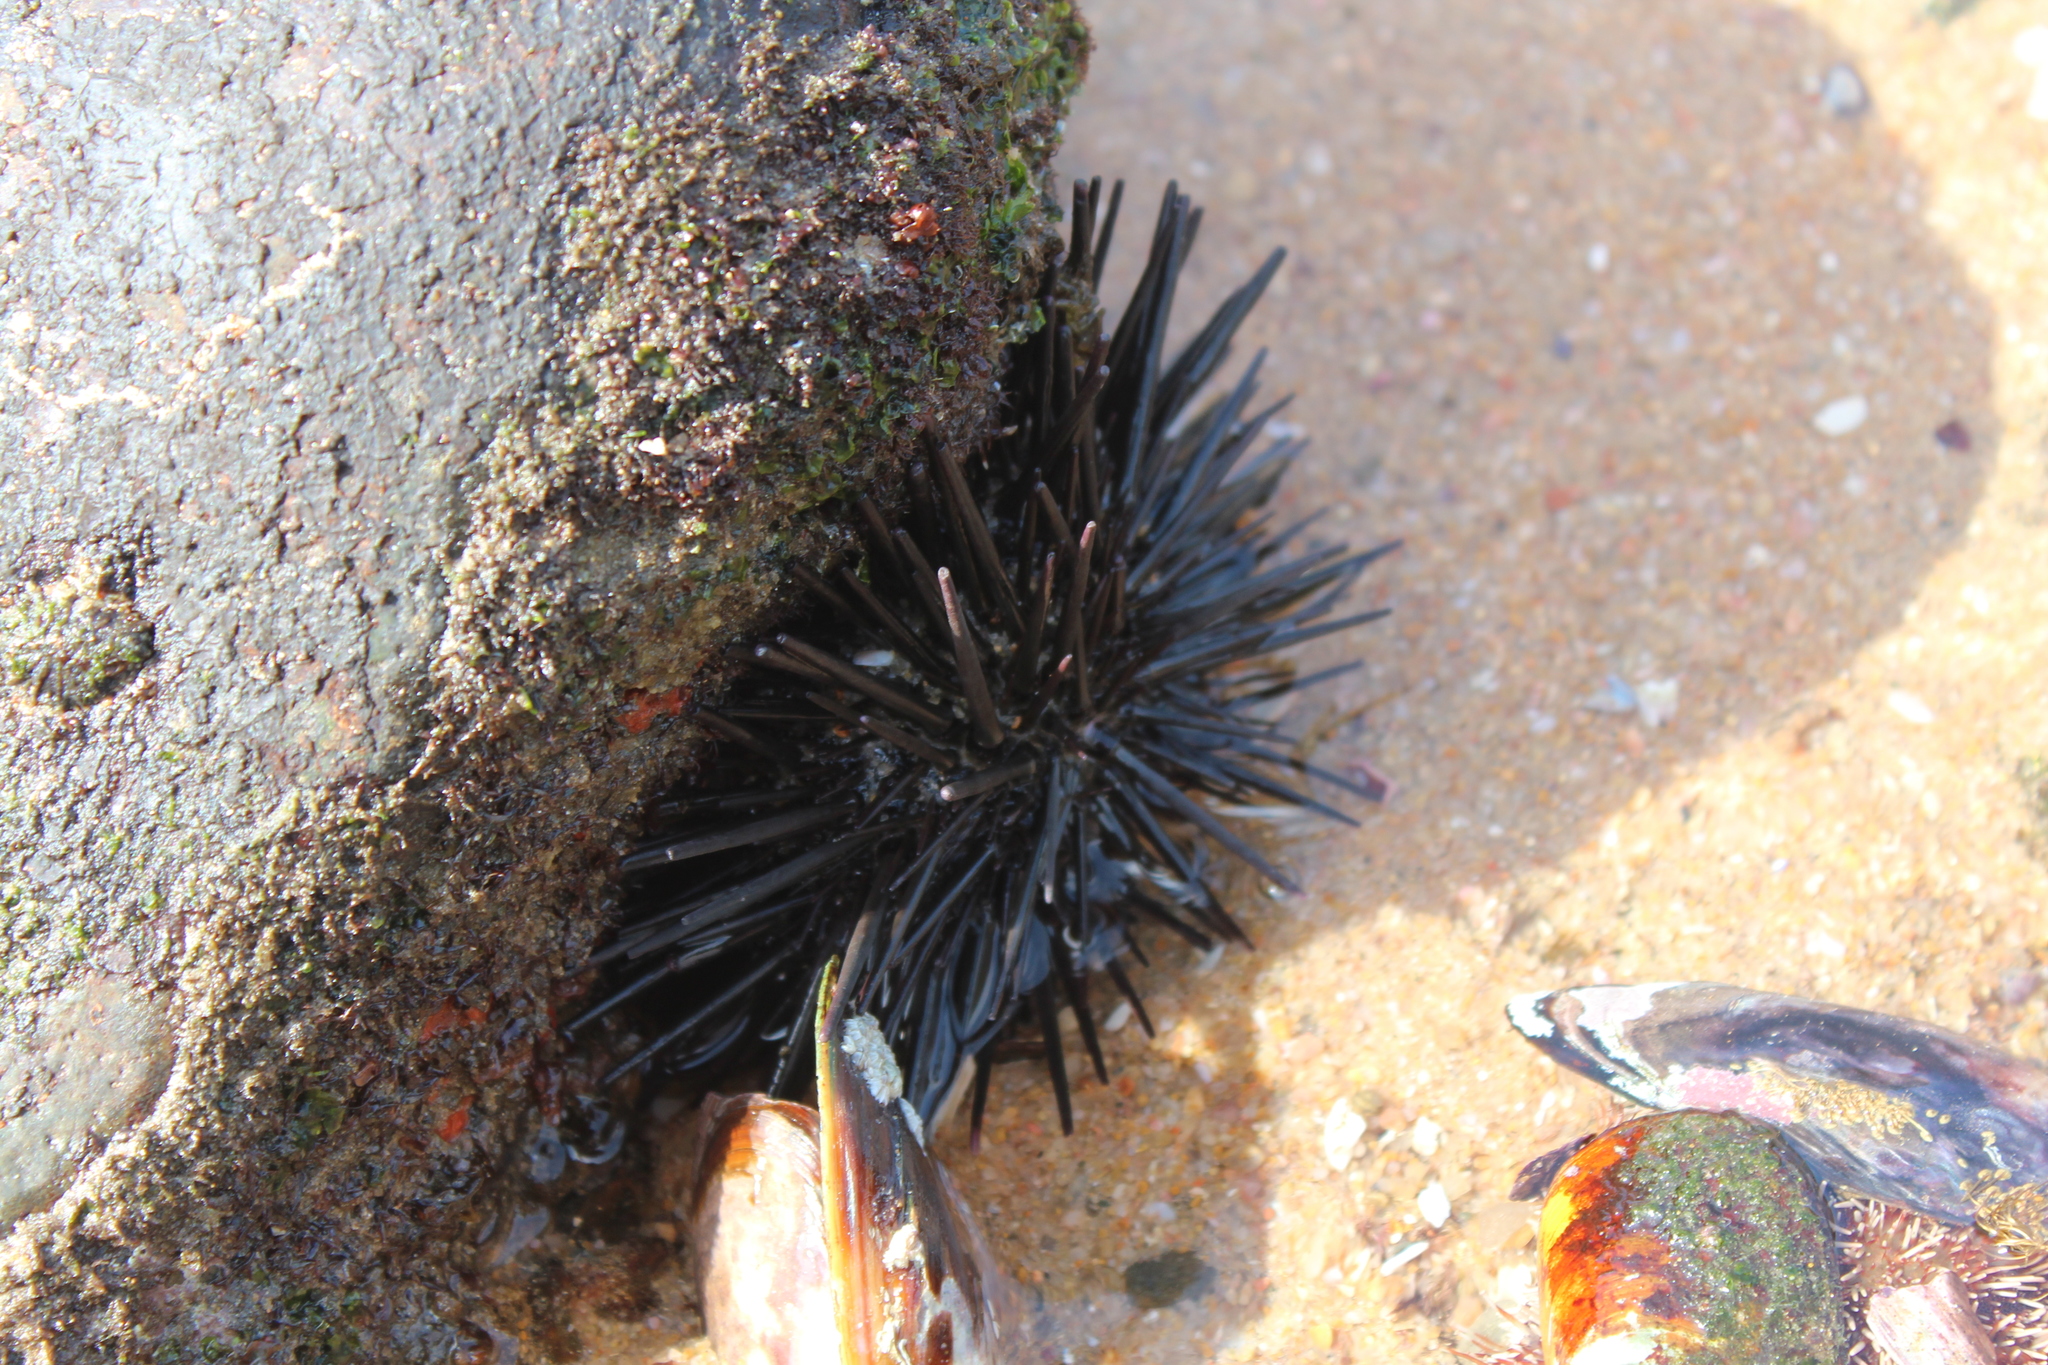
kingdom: Animalia
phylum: Echinodermata
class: Echinoidea
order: Diadematoida
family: Diadematidae
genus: Echinothrix
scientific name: Echinothrix diadema
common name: Schwarzer diademseeigel
